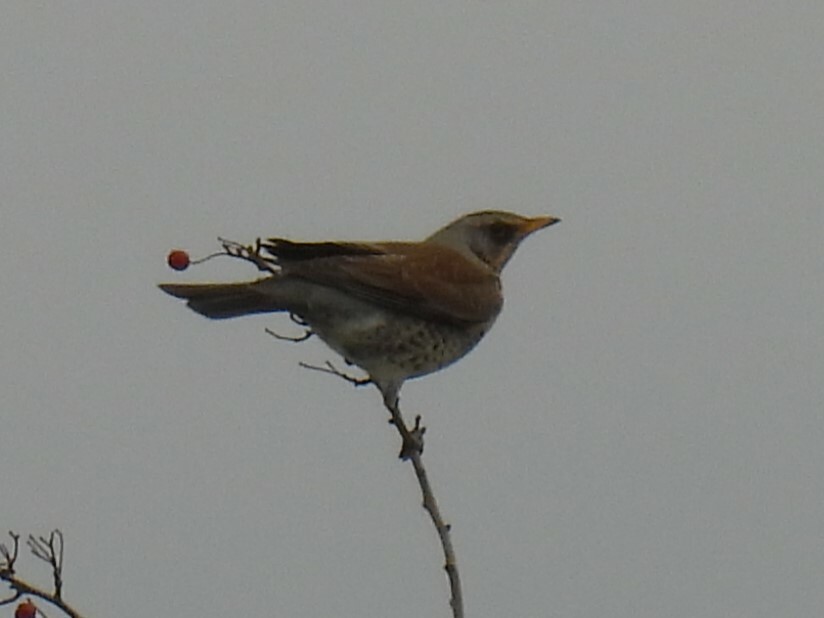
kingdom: Animalia
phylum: Chordata
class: Aves
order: Passeriformes
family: Turdidae
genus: Turdus
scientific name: Turdus pilaris
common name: Fieldfare
